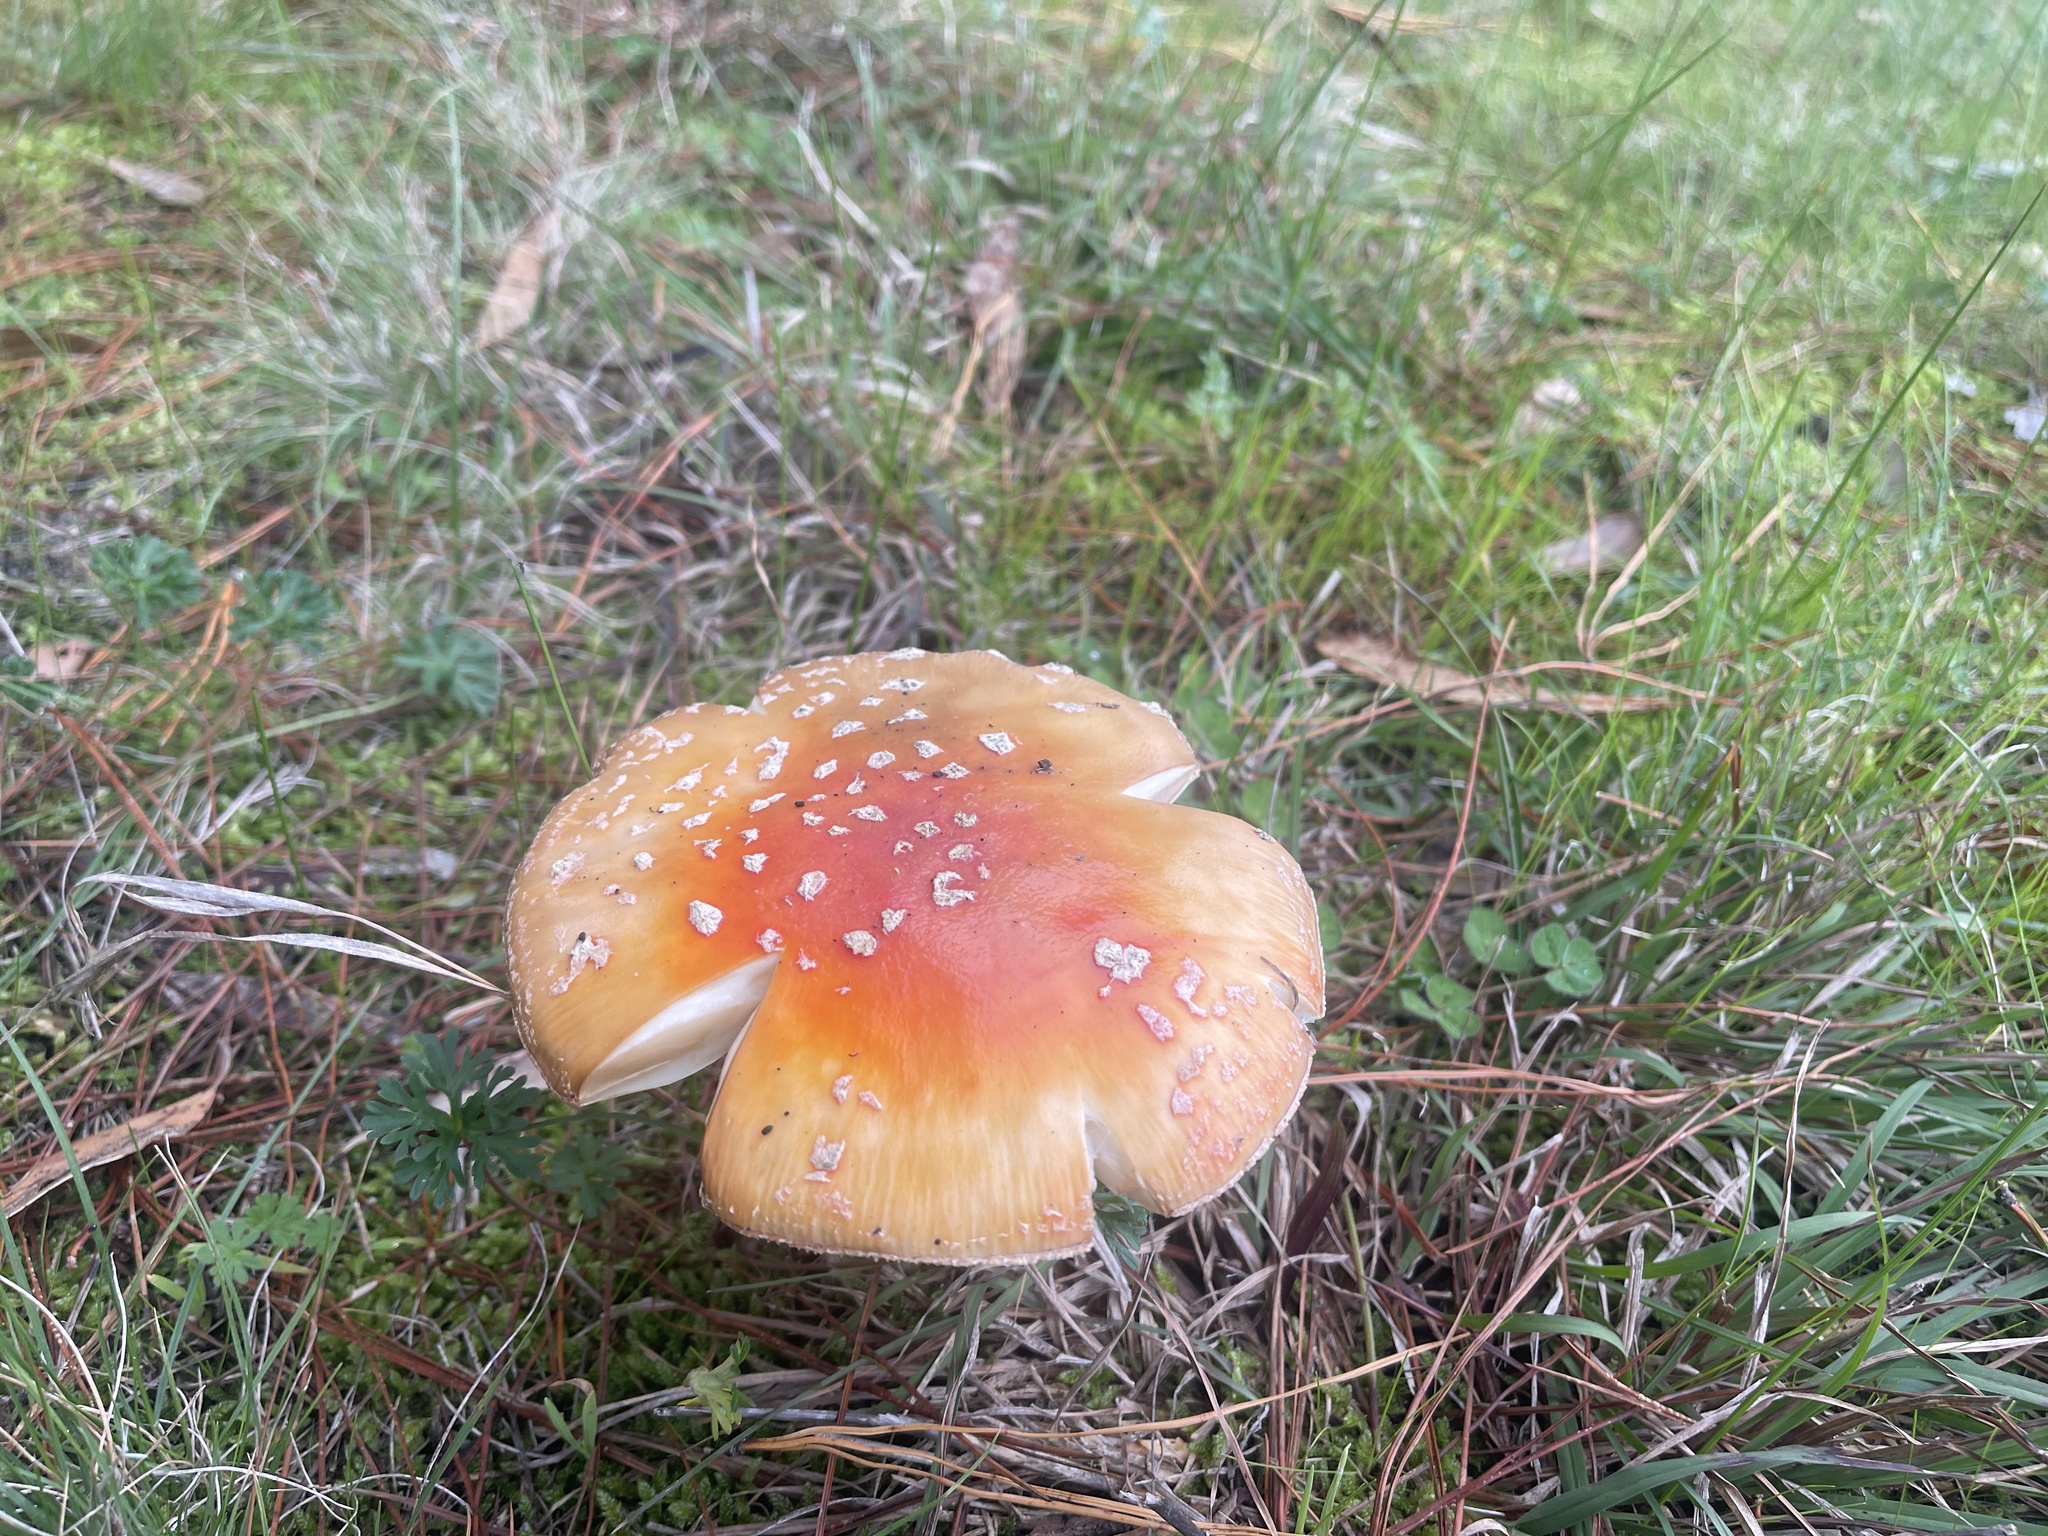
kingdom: Fungi
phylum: Basidiomycota
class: Agaricomycetes
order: Agaricales
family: Amanitaceae
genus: Amanita
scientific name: Amanita muscaria
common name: Fly agaric
